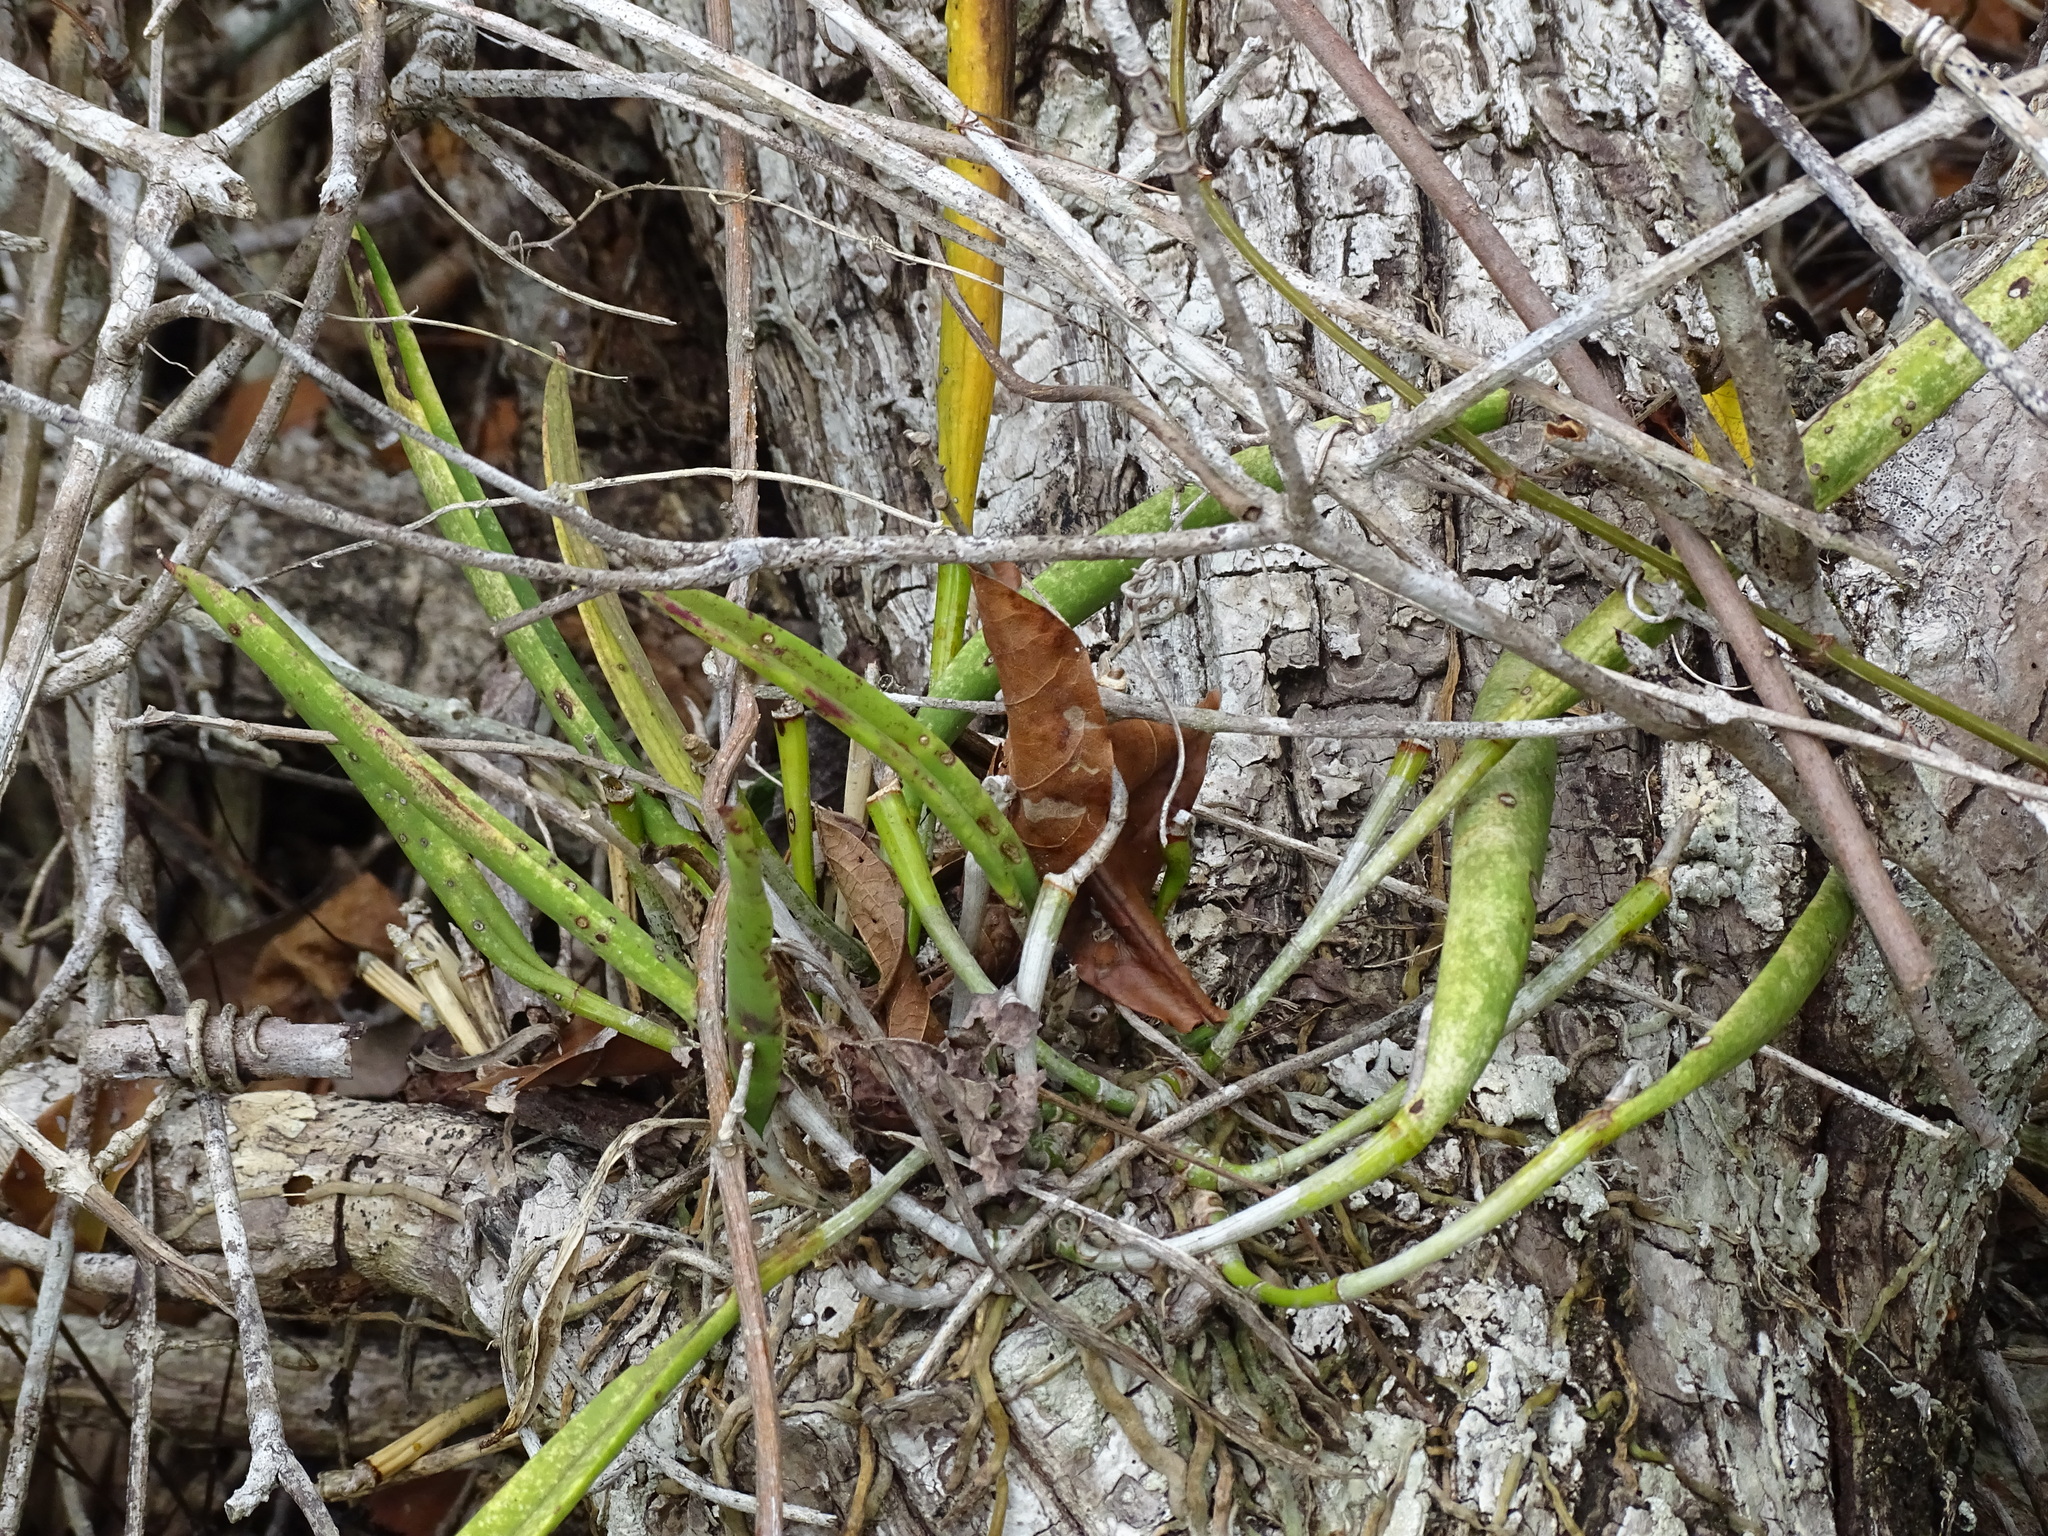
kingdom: Plantae
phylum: Tracheophyta
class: Liliopsida
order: Asparagales
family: Orchidaceae
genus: Brassavola
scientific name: Brassavola nodosa
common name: Lady of the night
